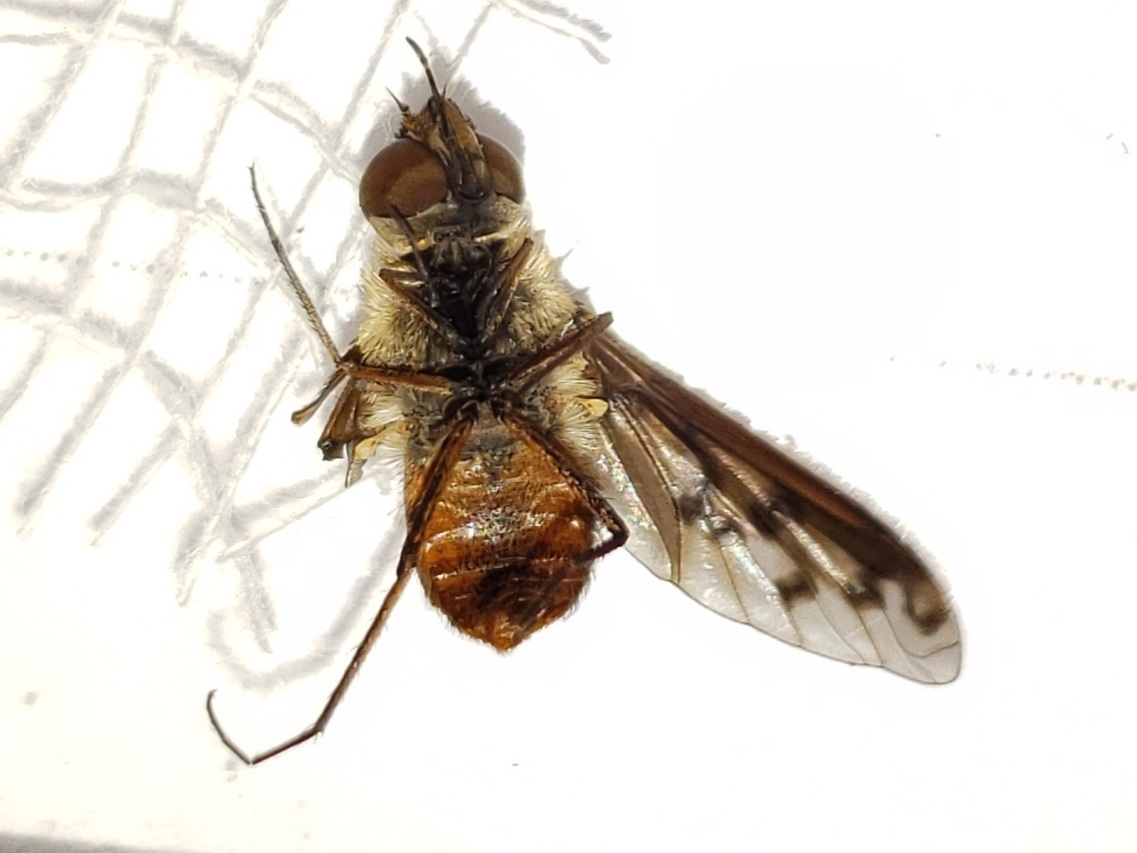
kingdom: Animalia
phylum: Arthropoda
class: Insecta
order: Diptera
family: Bombyliidae
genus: Neodiplocampta
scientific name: Neodiplocampta miranda
